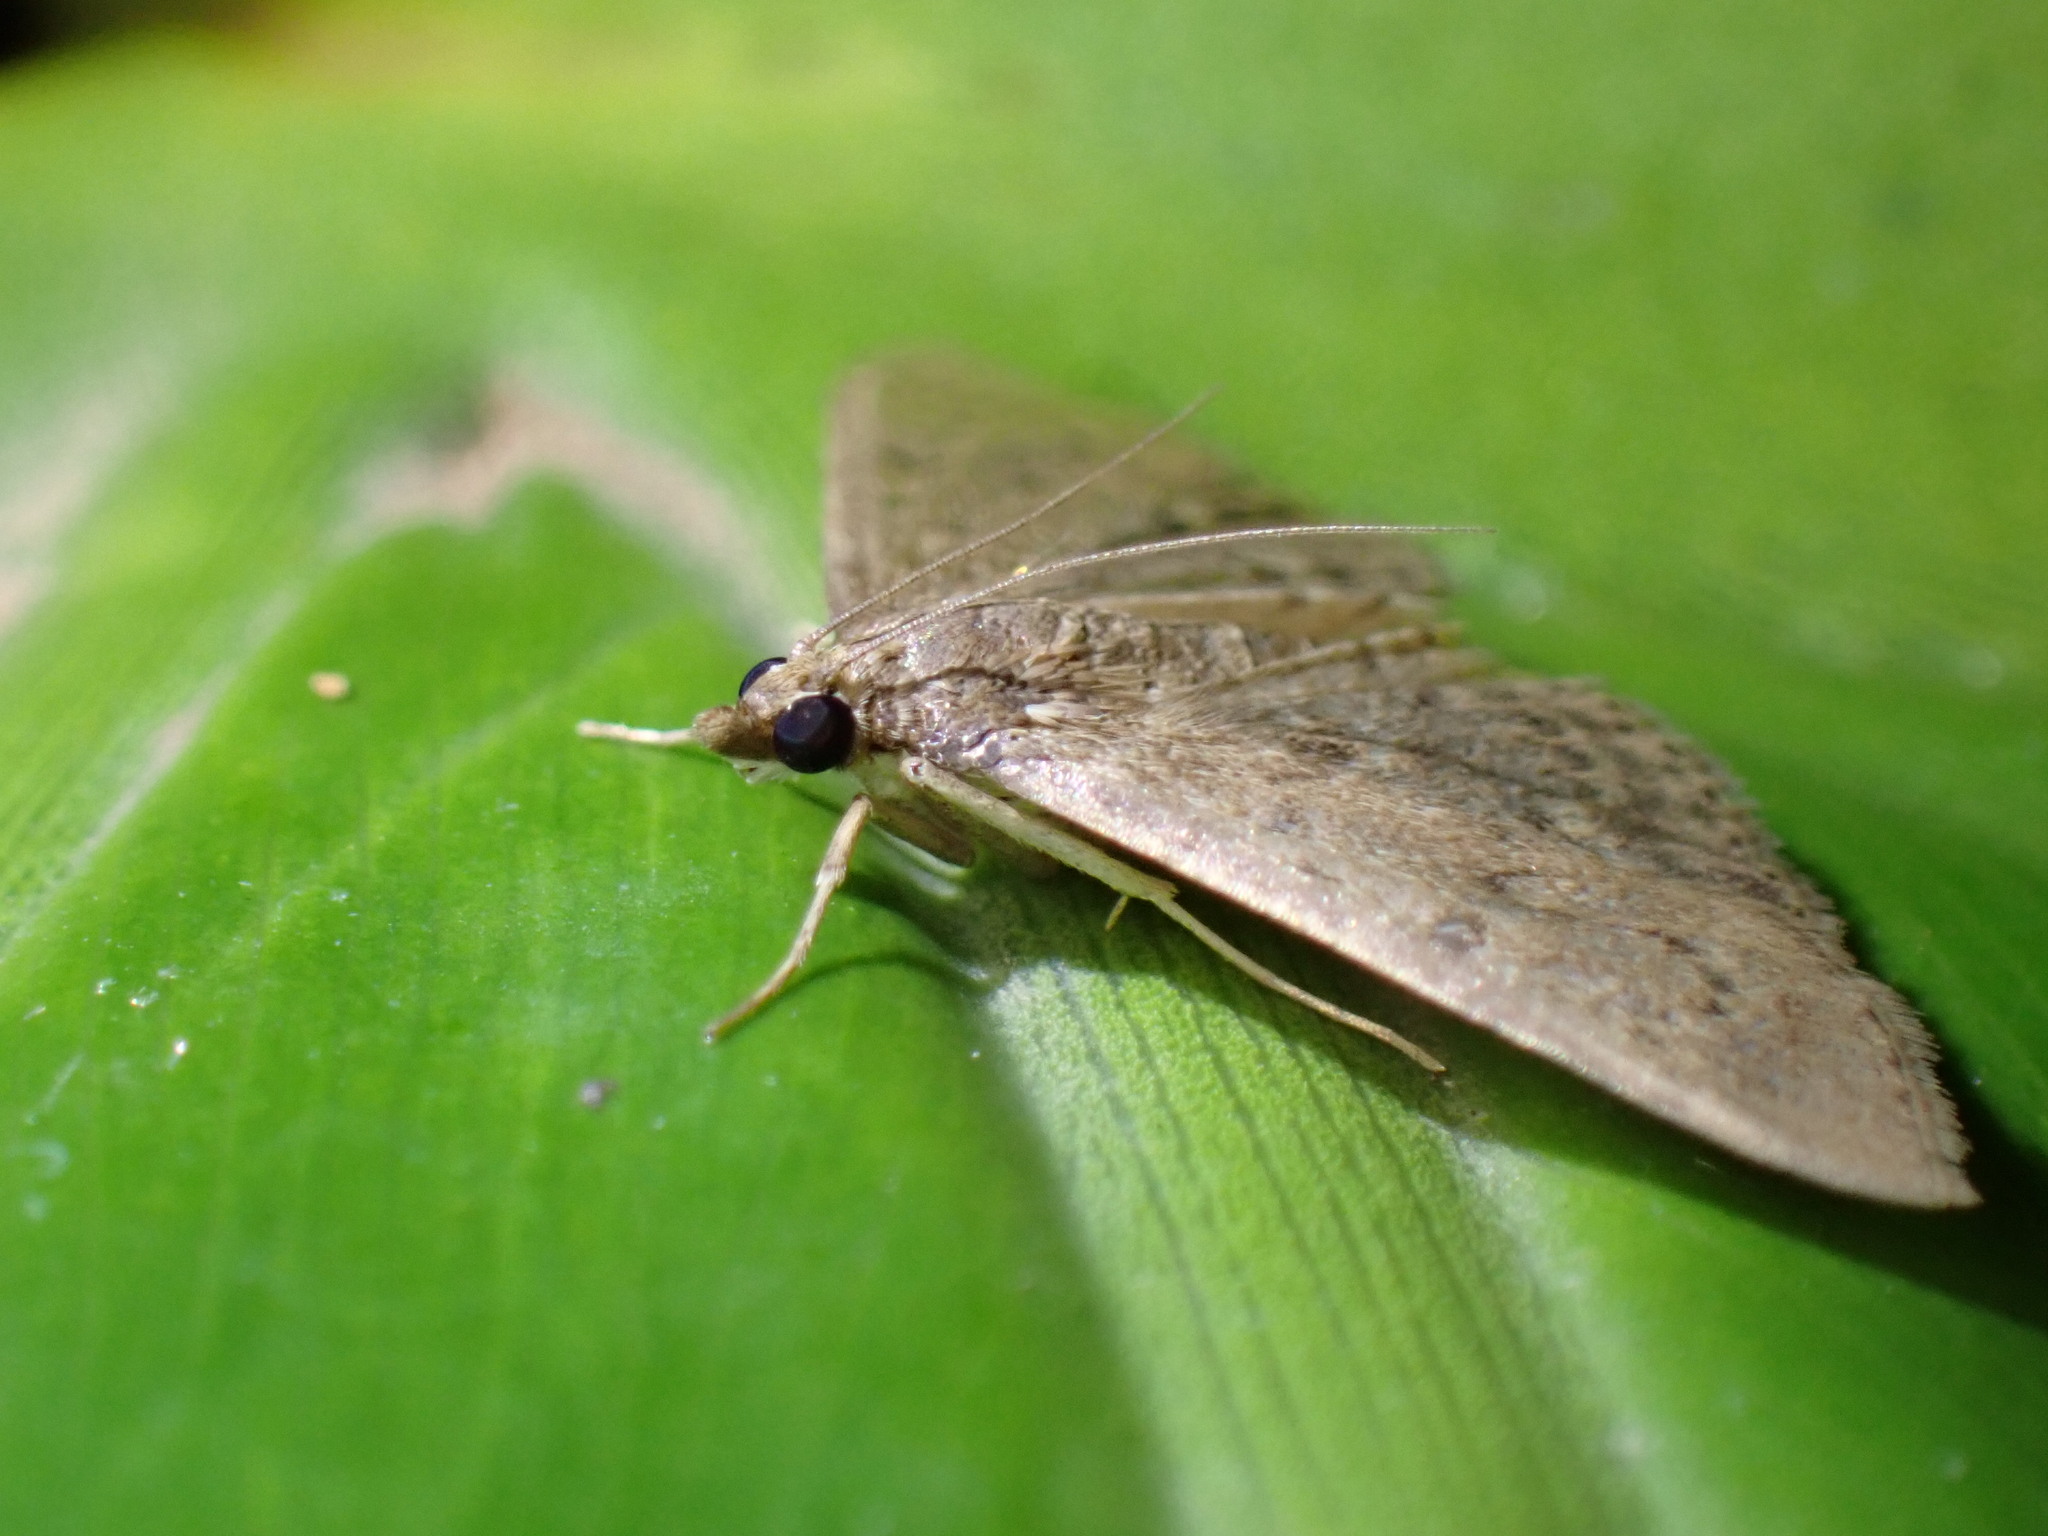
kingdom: Animalia
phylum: Arthropoda
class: Insecta
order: Lepidoptera
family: Crambidae
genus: Herpetogramma
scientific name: Herpetogramma licarsisalis
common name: Grass webworm
